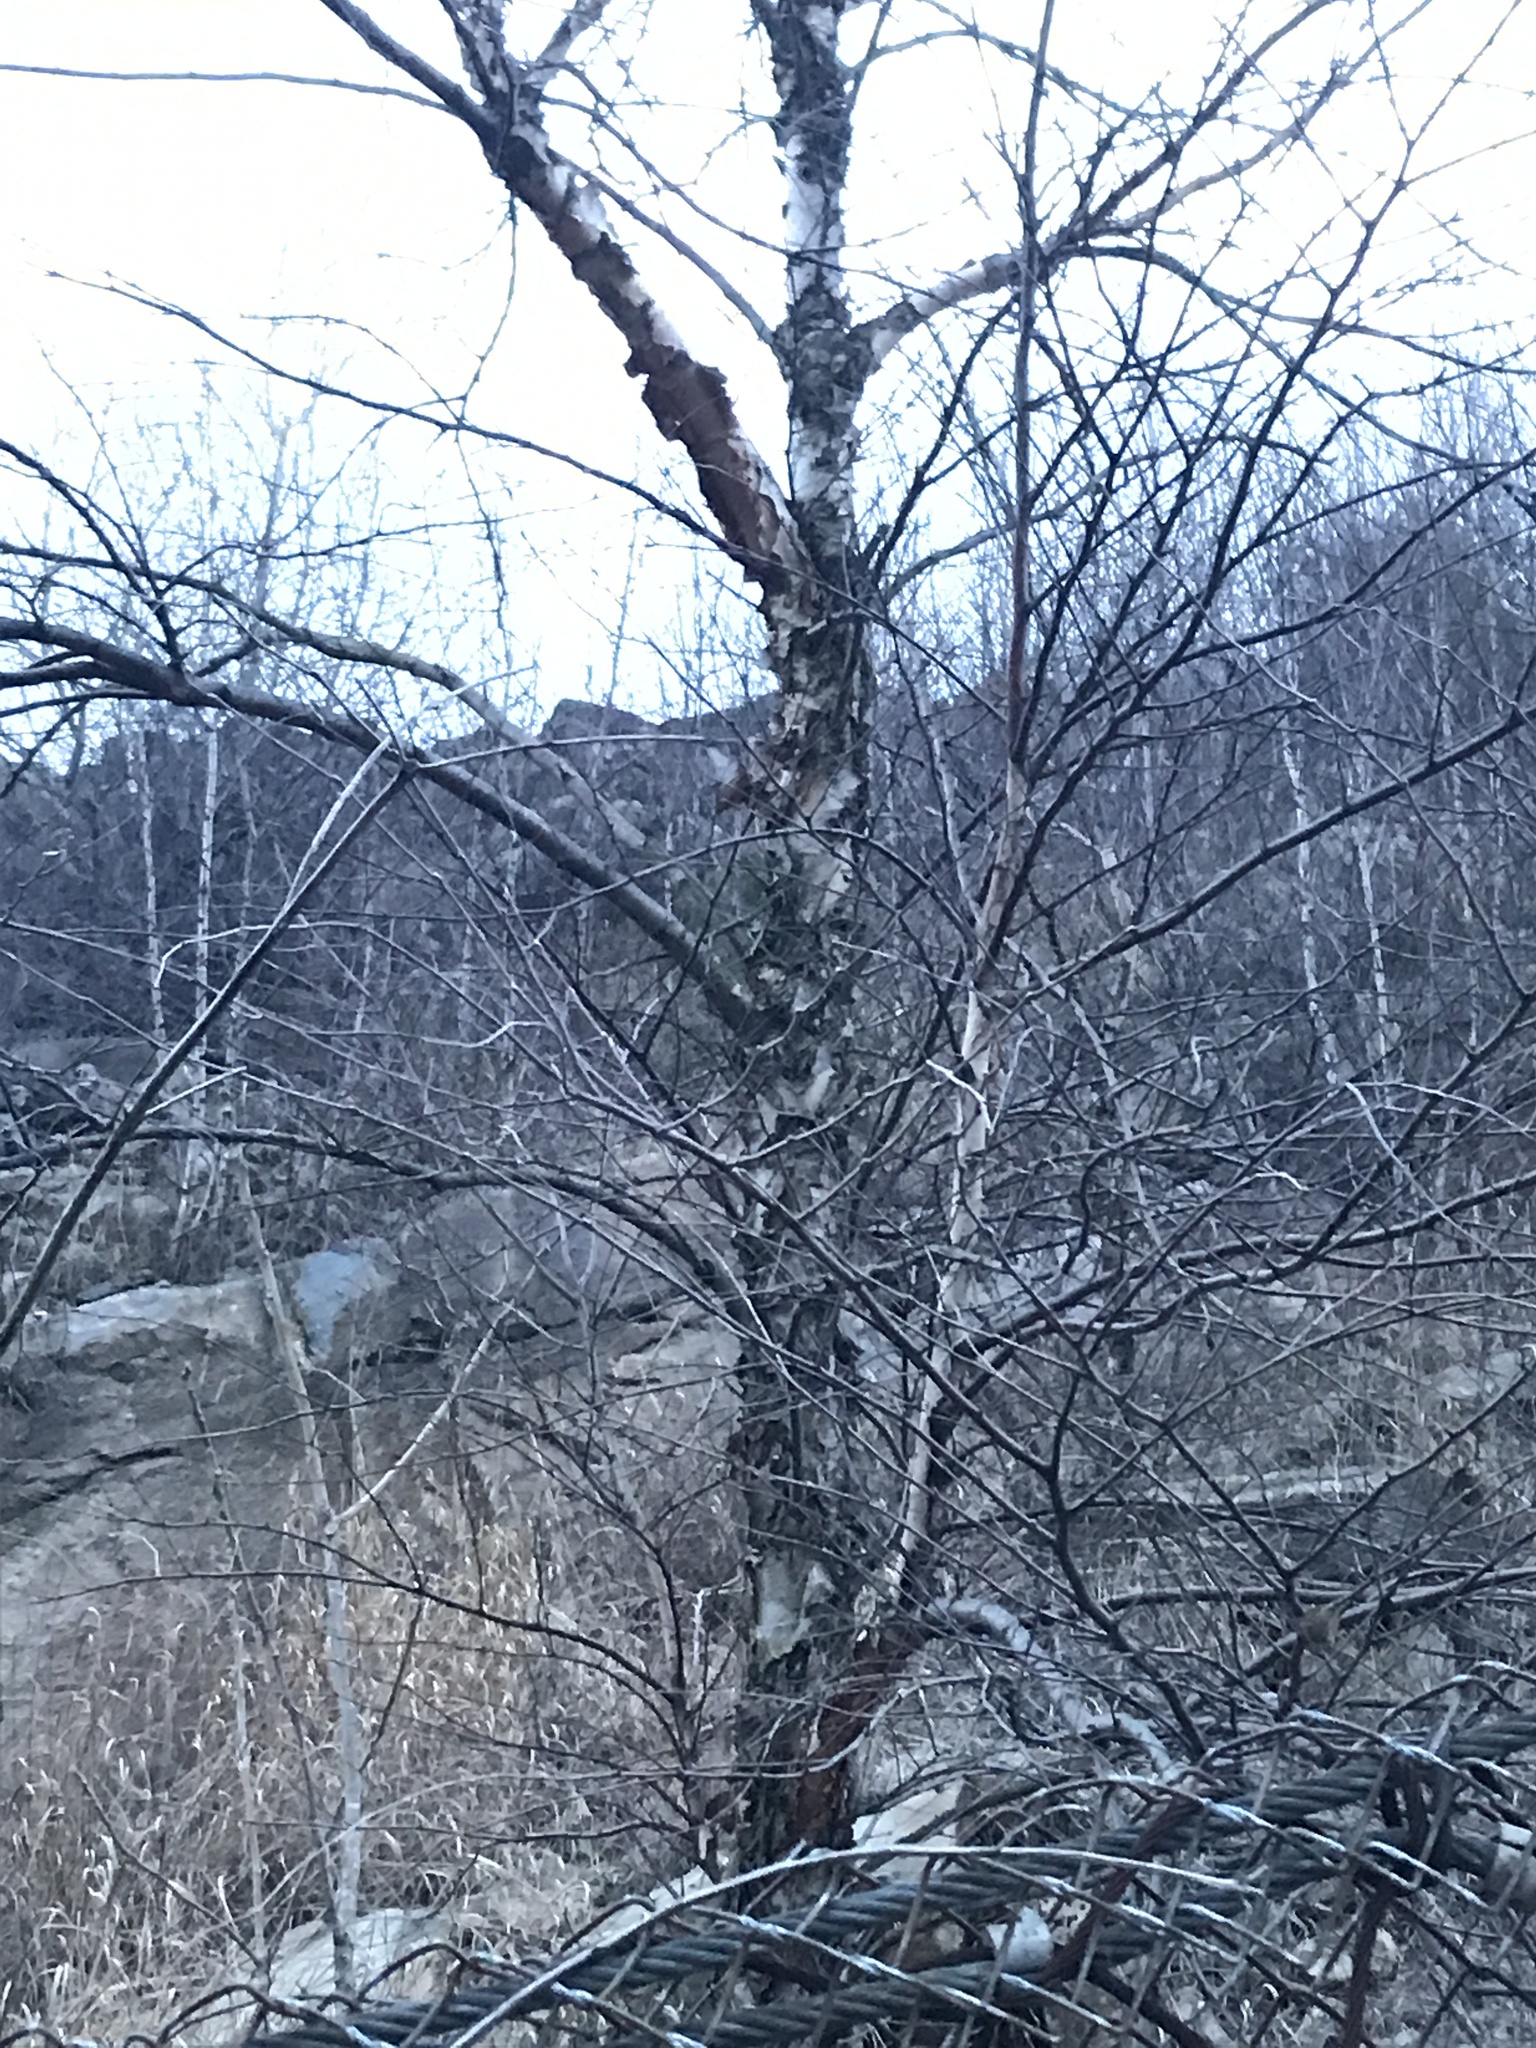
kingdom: Plantae
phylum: Tracheophyta
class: Magnoliopsida
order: Fagales
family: Betulaceae
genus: Betula
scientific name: Betula nigra
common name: Black birch
